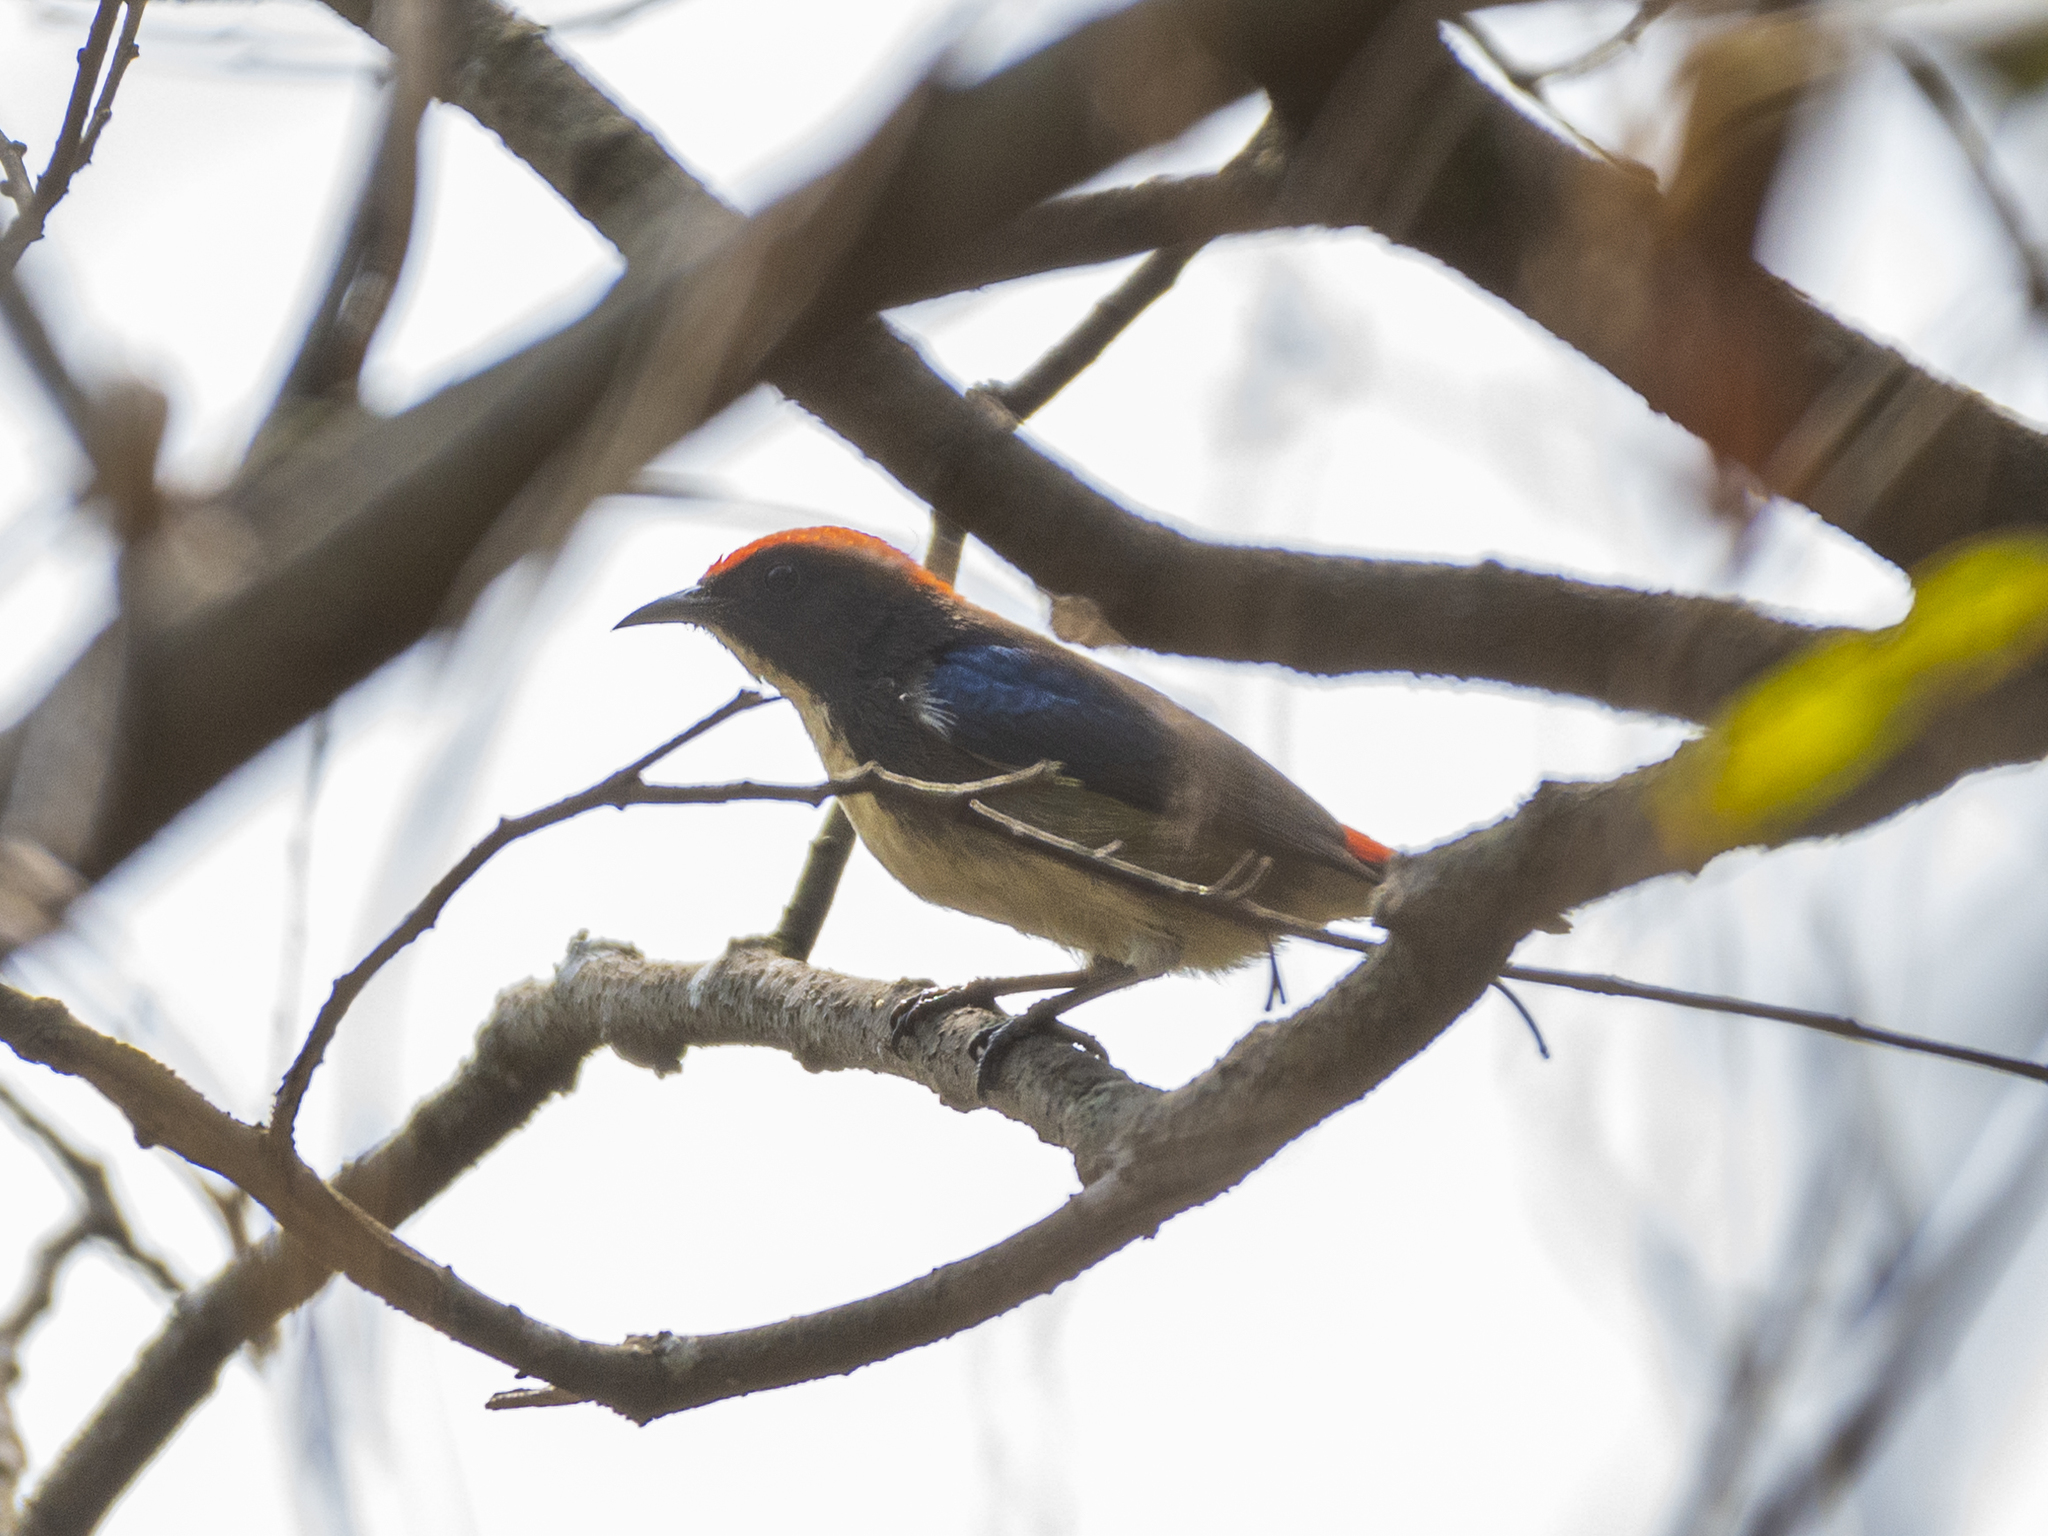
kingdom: Animalia
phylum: Chordata
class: Aves
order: Passeriformes
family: Dicaeidae
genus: Dicaeum
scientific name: Dicaeum cruentatum
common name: Scarlet-backed flowerpecker
